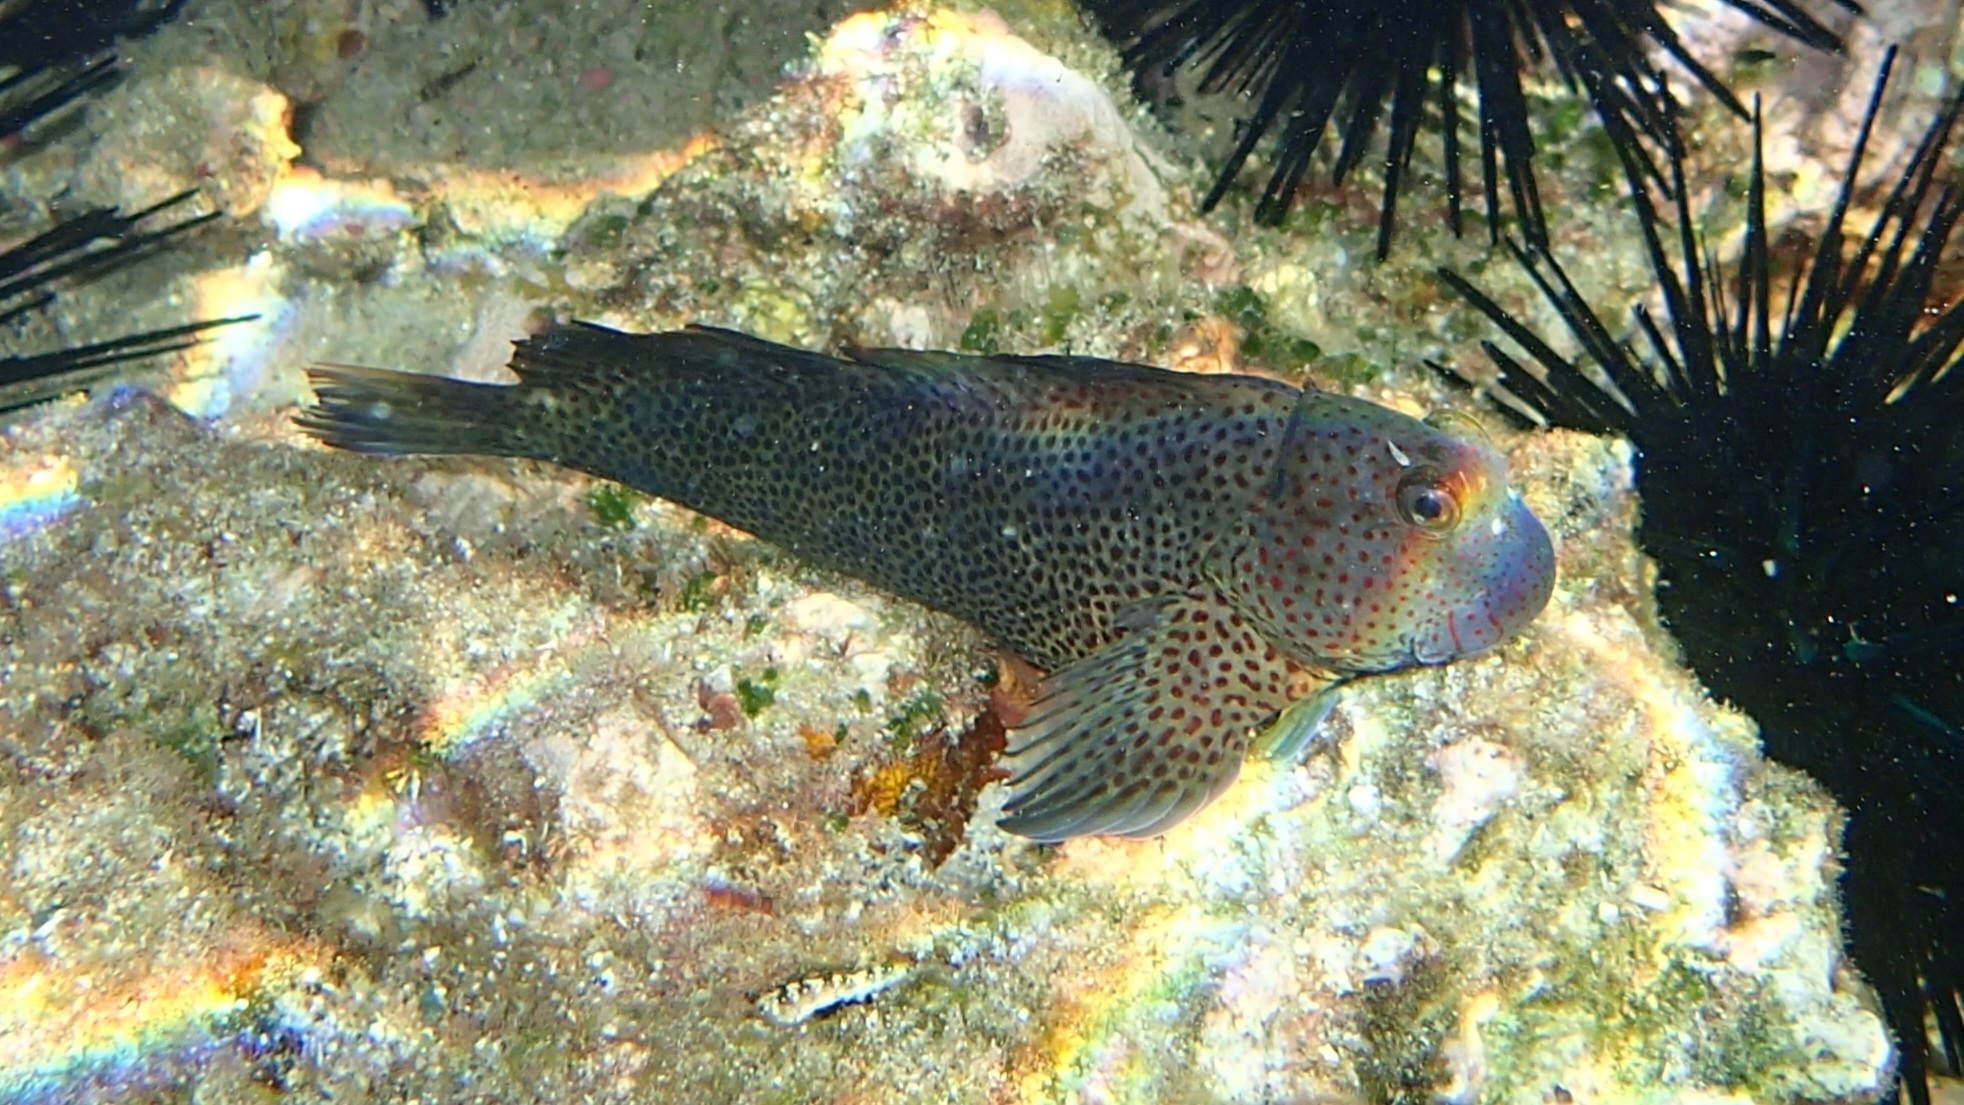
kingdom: Animalia
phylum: Chordata
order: Perciformes
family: Blenniidae
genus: Cirripectes
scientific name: Cirripectes randalli
